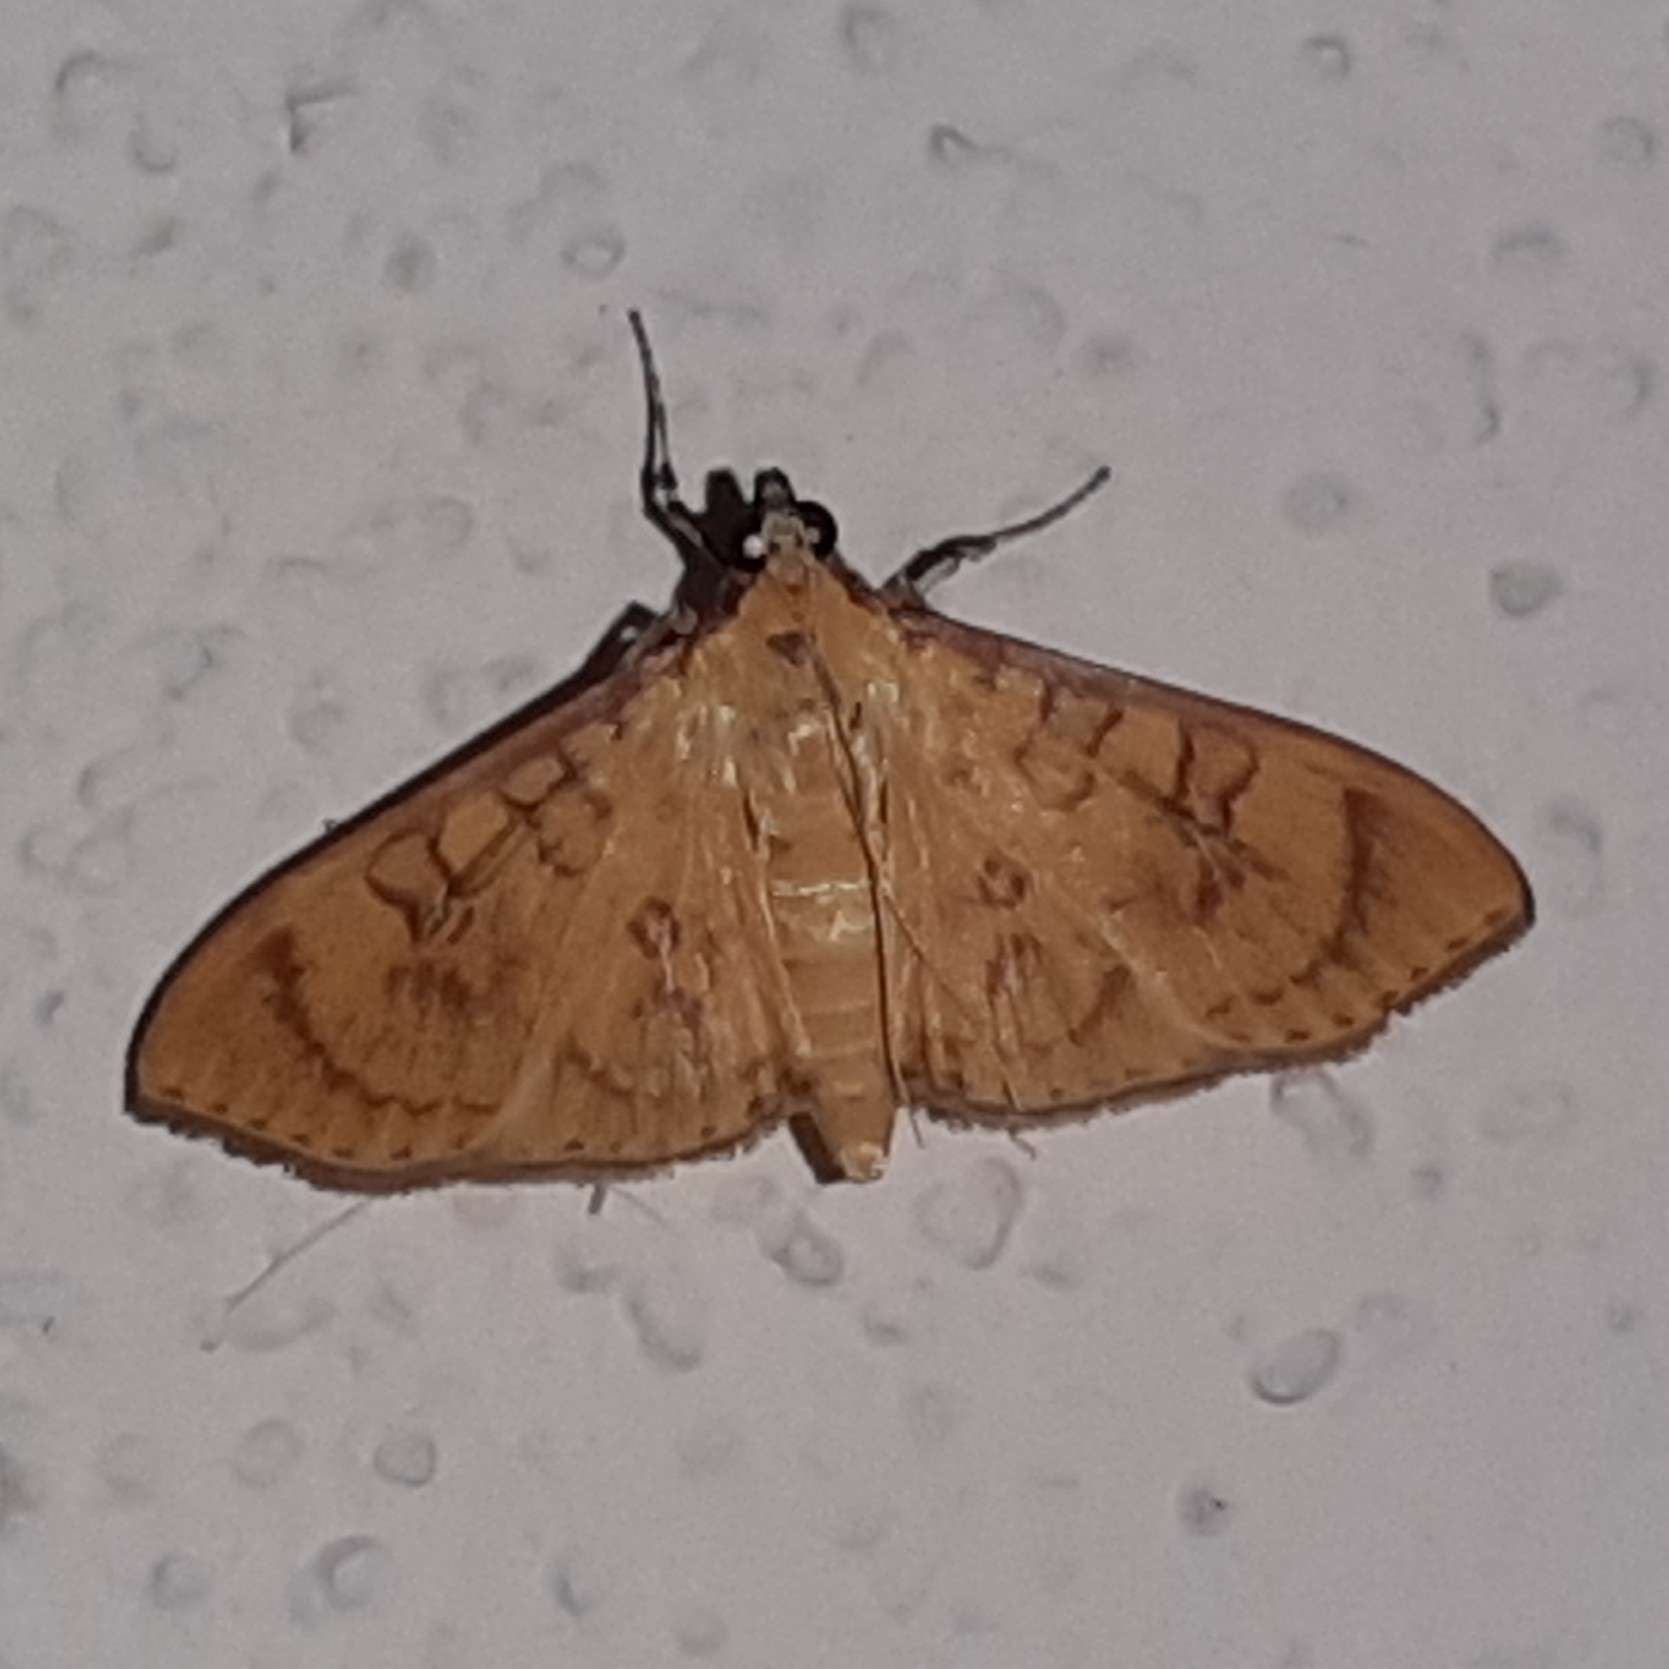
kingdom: Animalia
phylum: Arthropoda
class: Insecta
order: Lepidoptera
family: Crambidae
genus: Trithyris
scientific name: Trithyris
